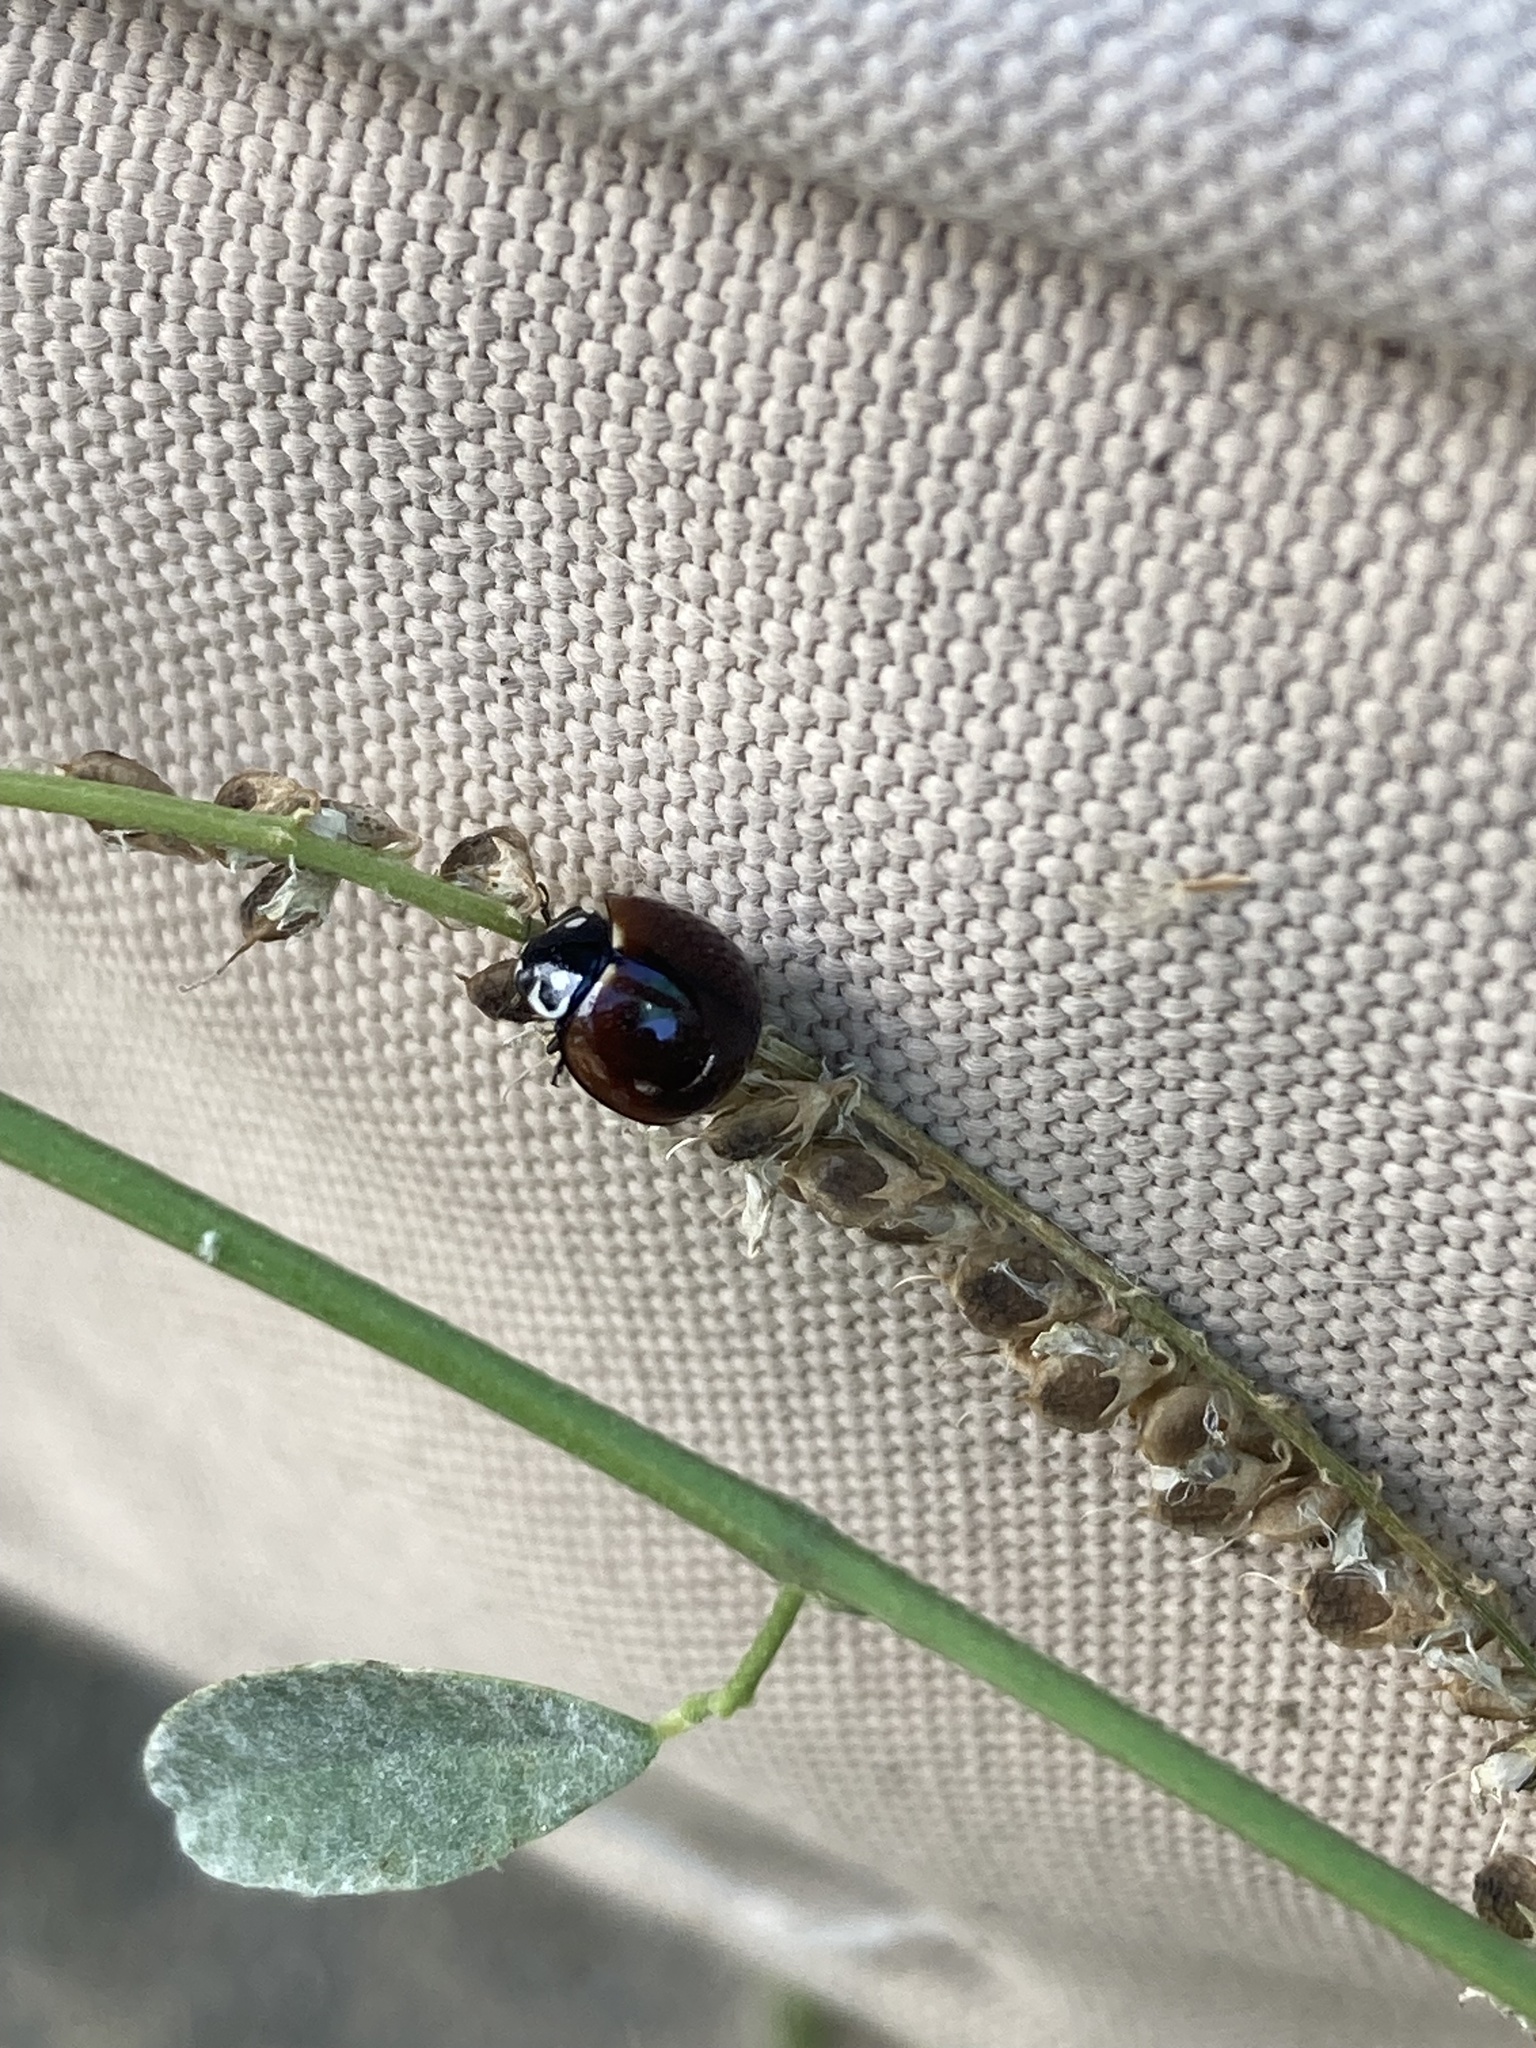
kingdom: Animalia
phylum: Arthropoda
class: Insecta
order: Coleoptera
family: Coccinellidae
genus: Cycloneda
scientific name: Cycloneda sanguinea
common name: Ladybird beetle
